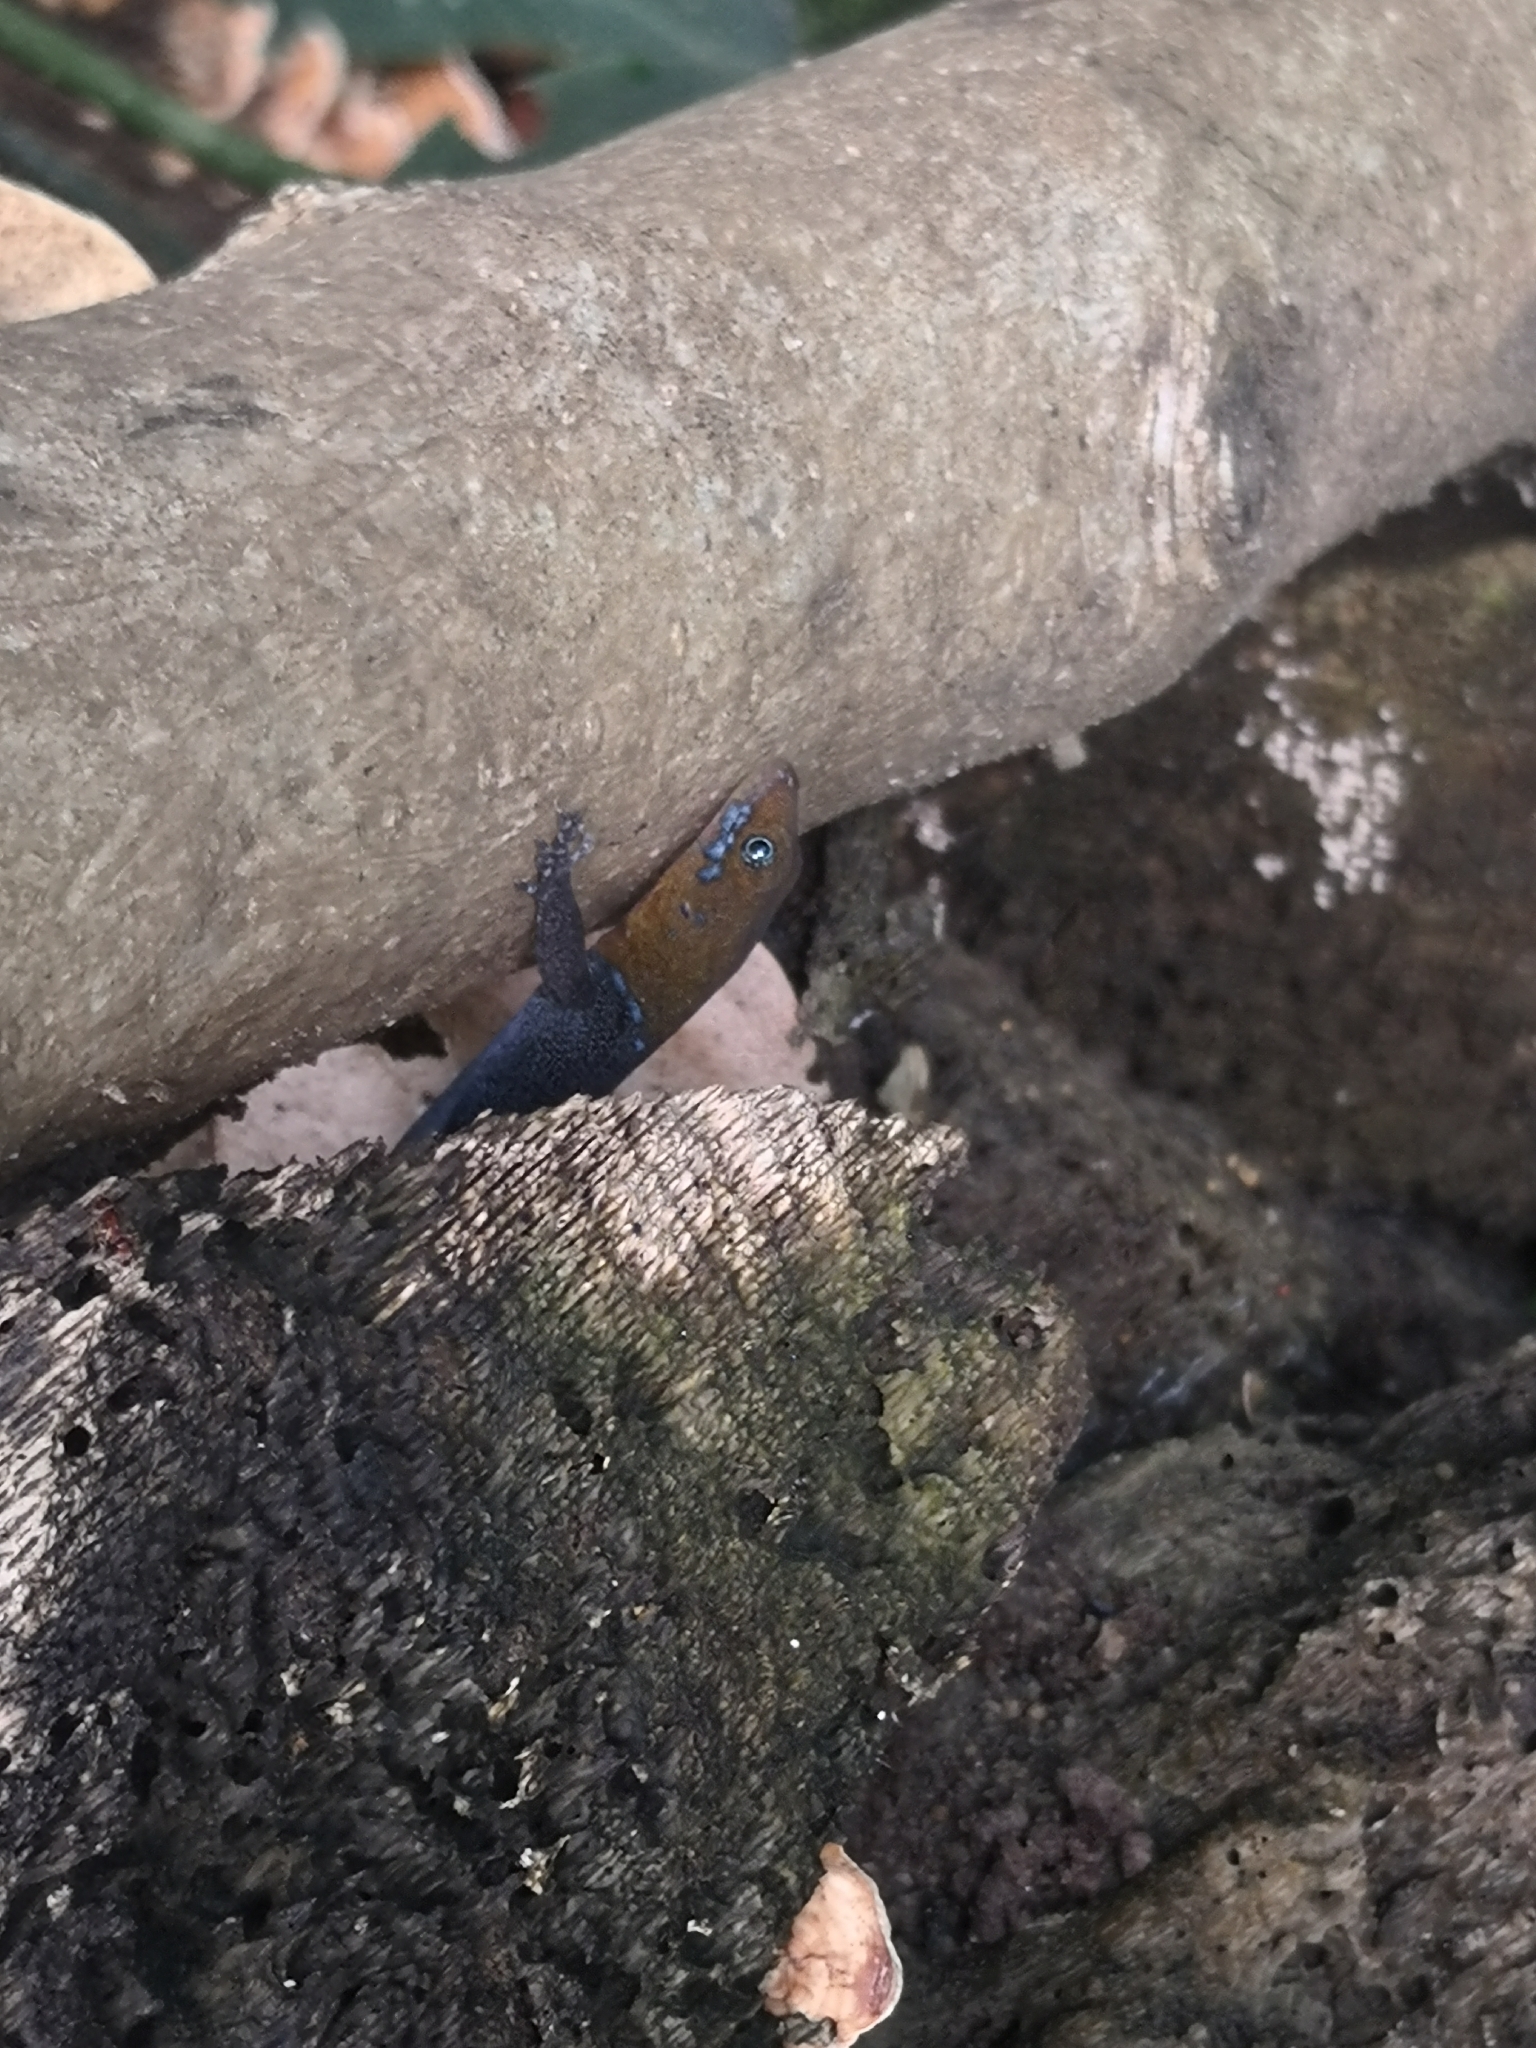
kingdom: Animalia
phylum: Chordata
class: Squamata
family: Sphaerodactylidae
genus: Gonatodes
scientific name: Gonatodes albogularis
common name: Yellow-headed gecko
